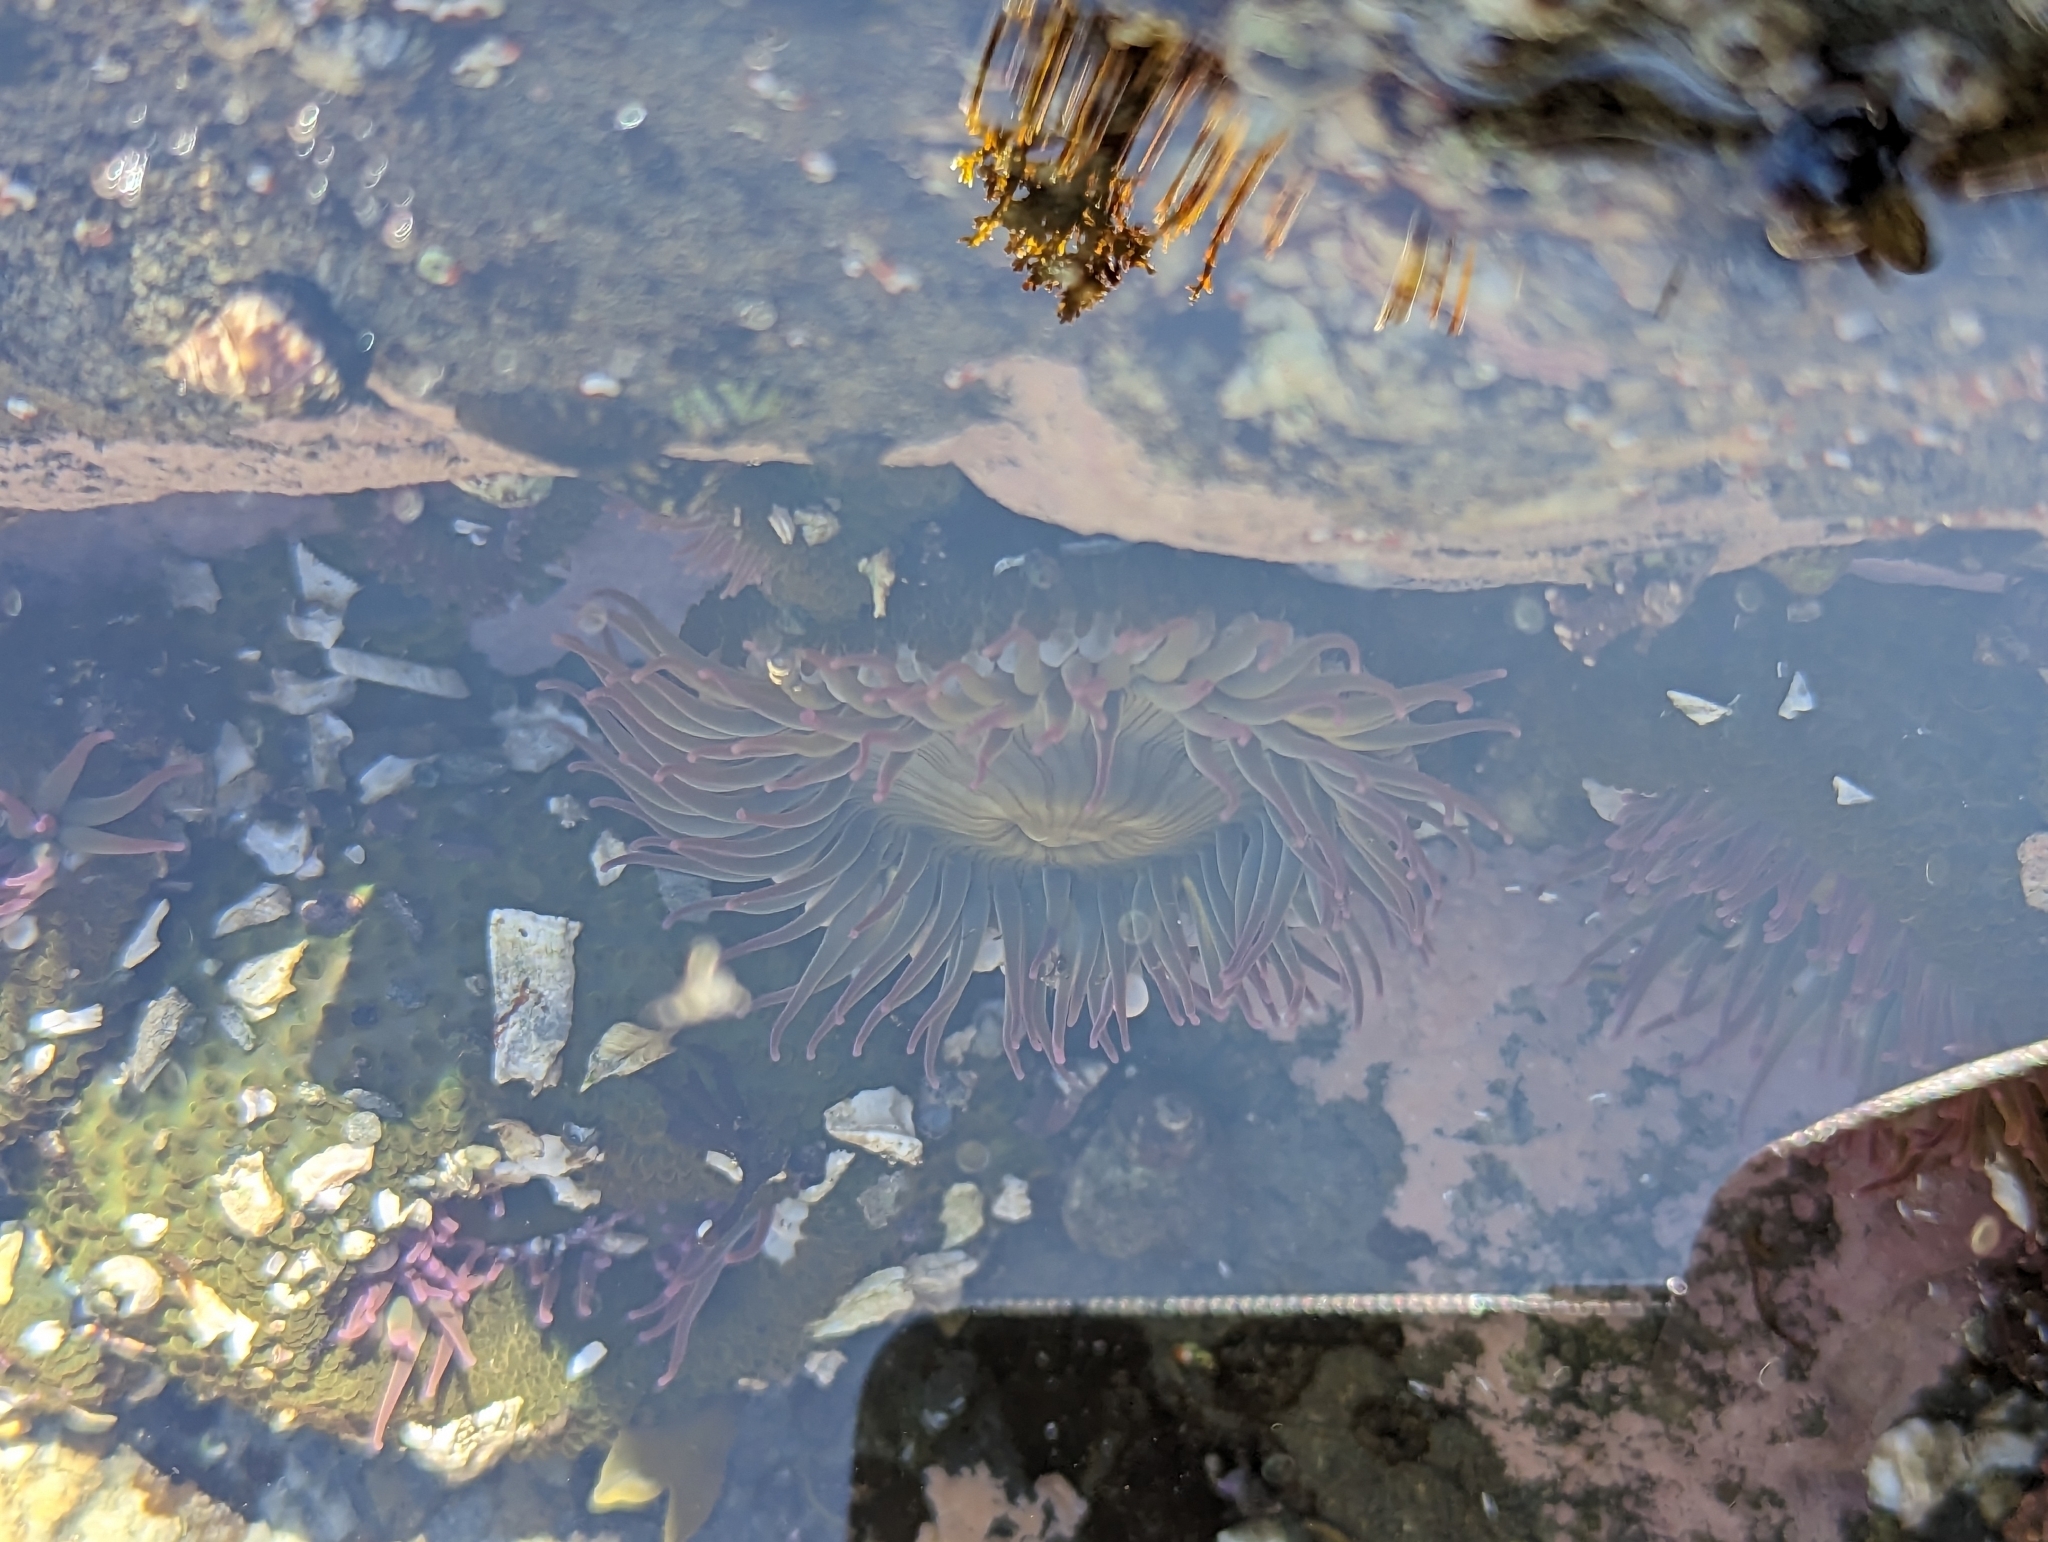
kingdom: Animalia
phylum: Cnidaria
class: Anthozoa
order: Actiniaria
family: Actiniidae
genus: Anthopleura
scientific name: Anthopleura elegantissima
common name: Clonal anemone
